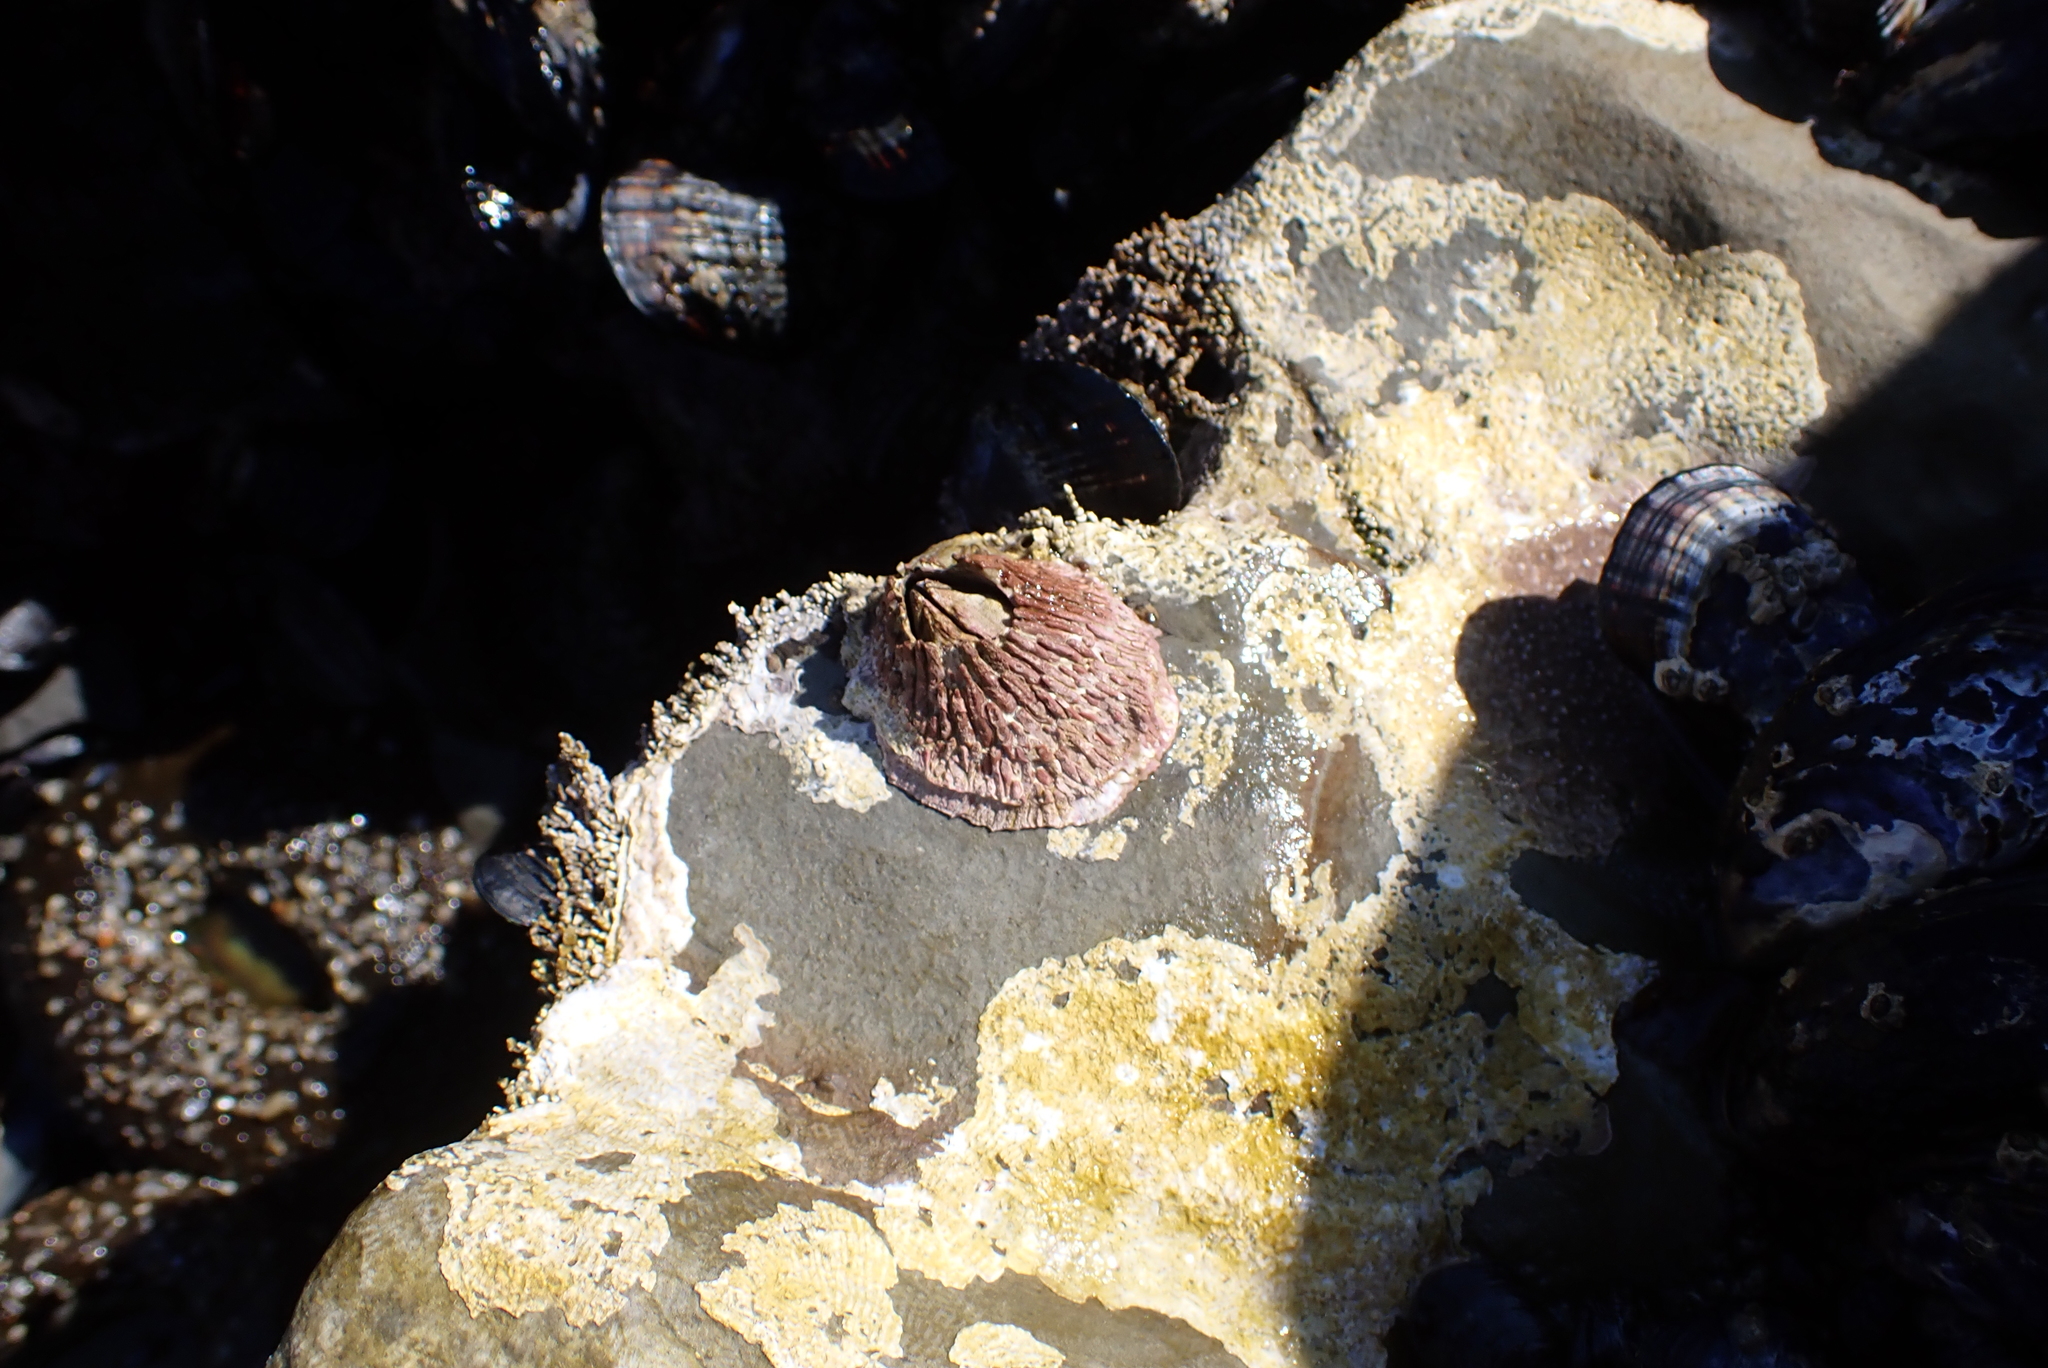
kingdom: Animalia
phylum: Arthropoda
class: Maxillopoda
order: Sessilia
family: Tetraclitidae
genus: Tetraclita
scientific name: Tetraclita rubescens
